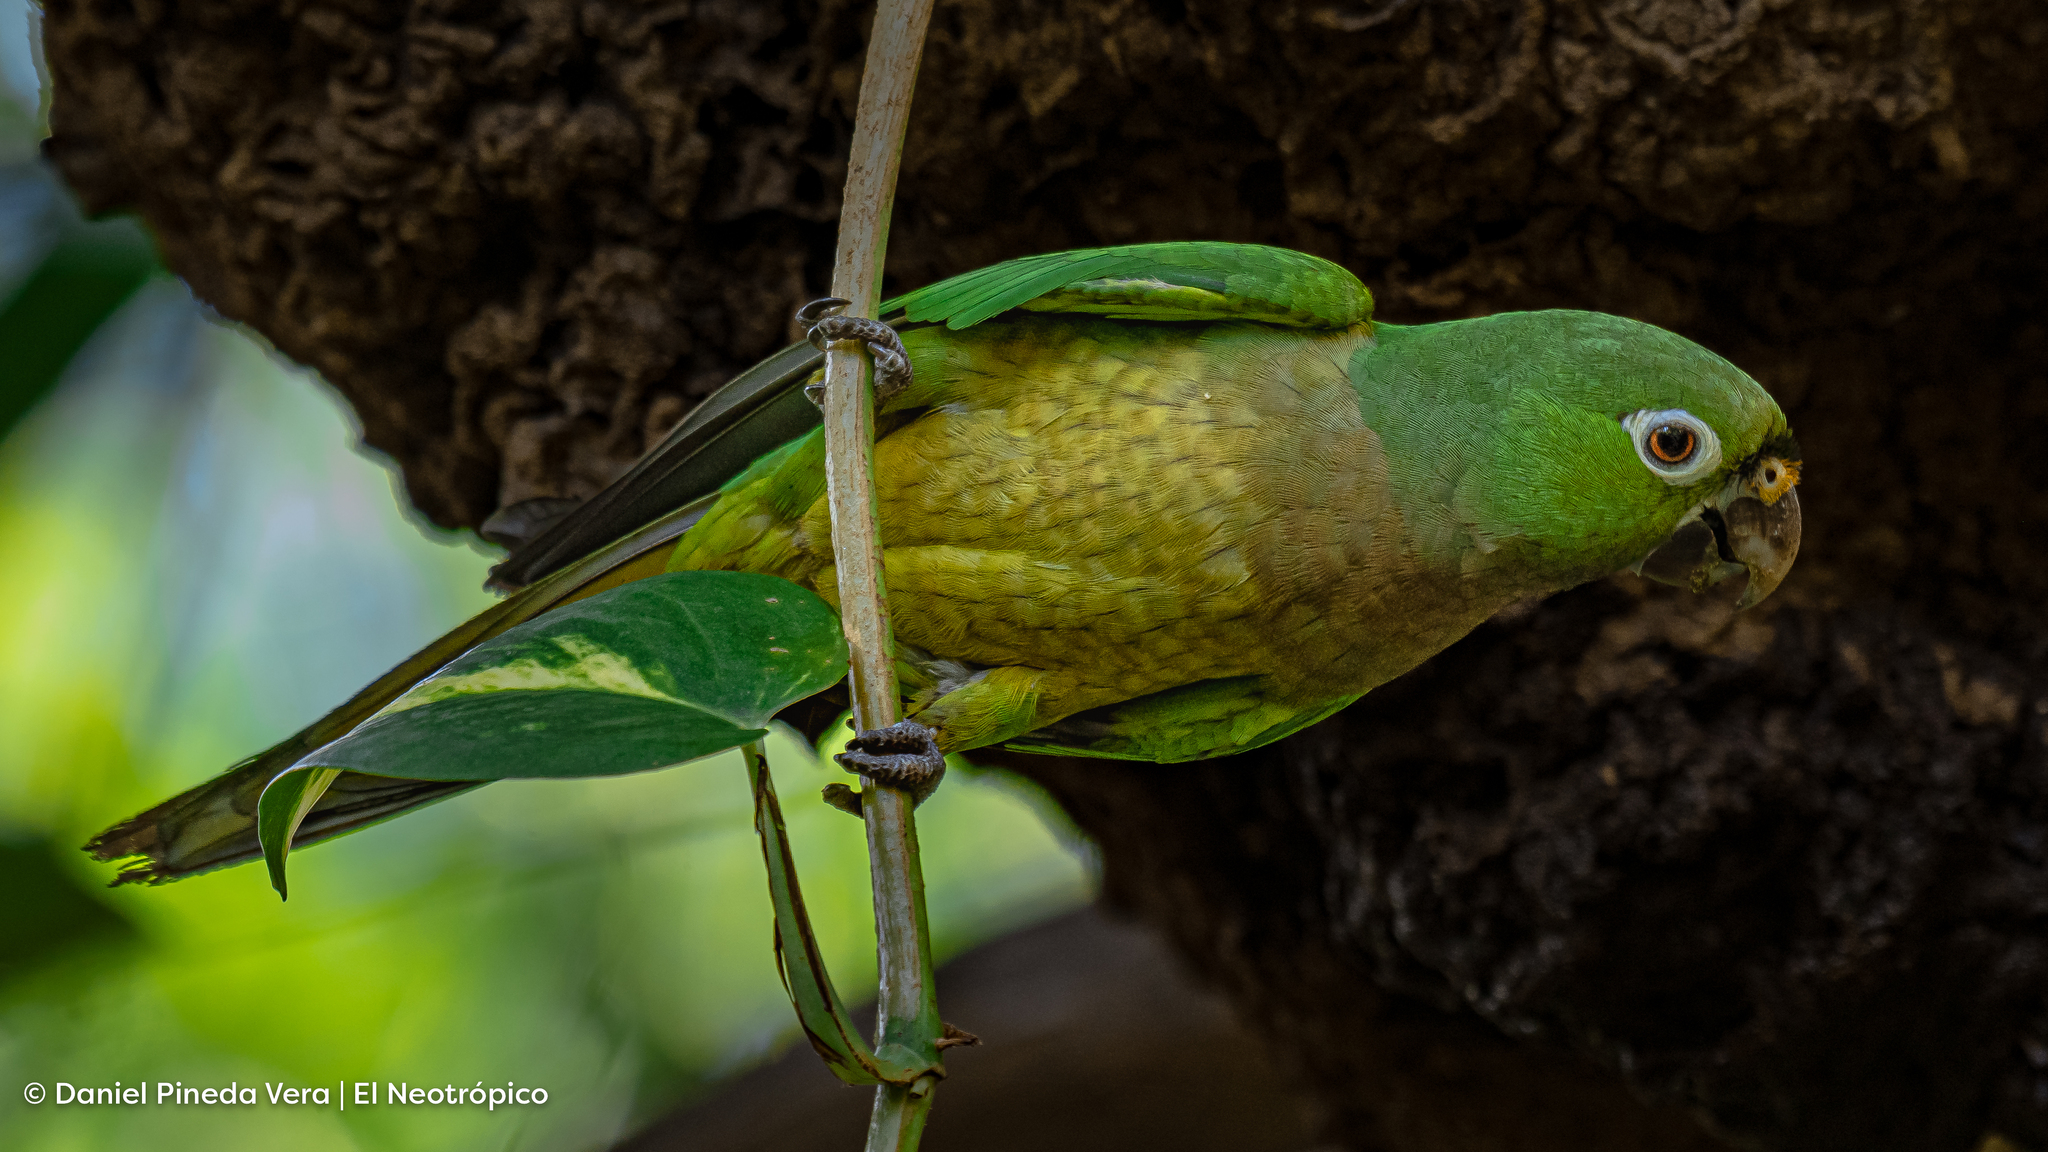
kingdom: Animalia
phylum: Chordata
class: Aves
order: Psittaciformes
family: Psittacidae
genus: Aratinga
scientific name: Aratinga nana
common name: Olive-throated parakeet
